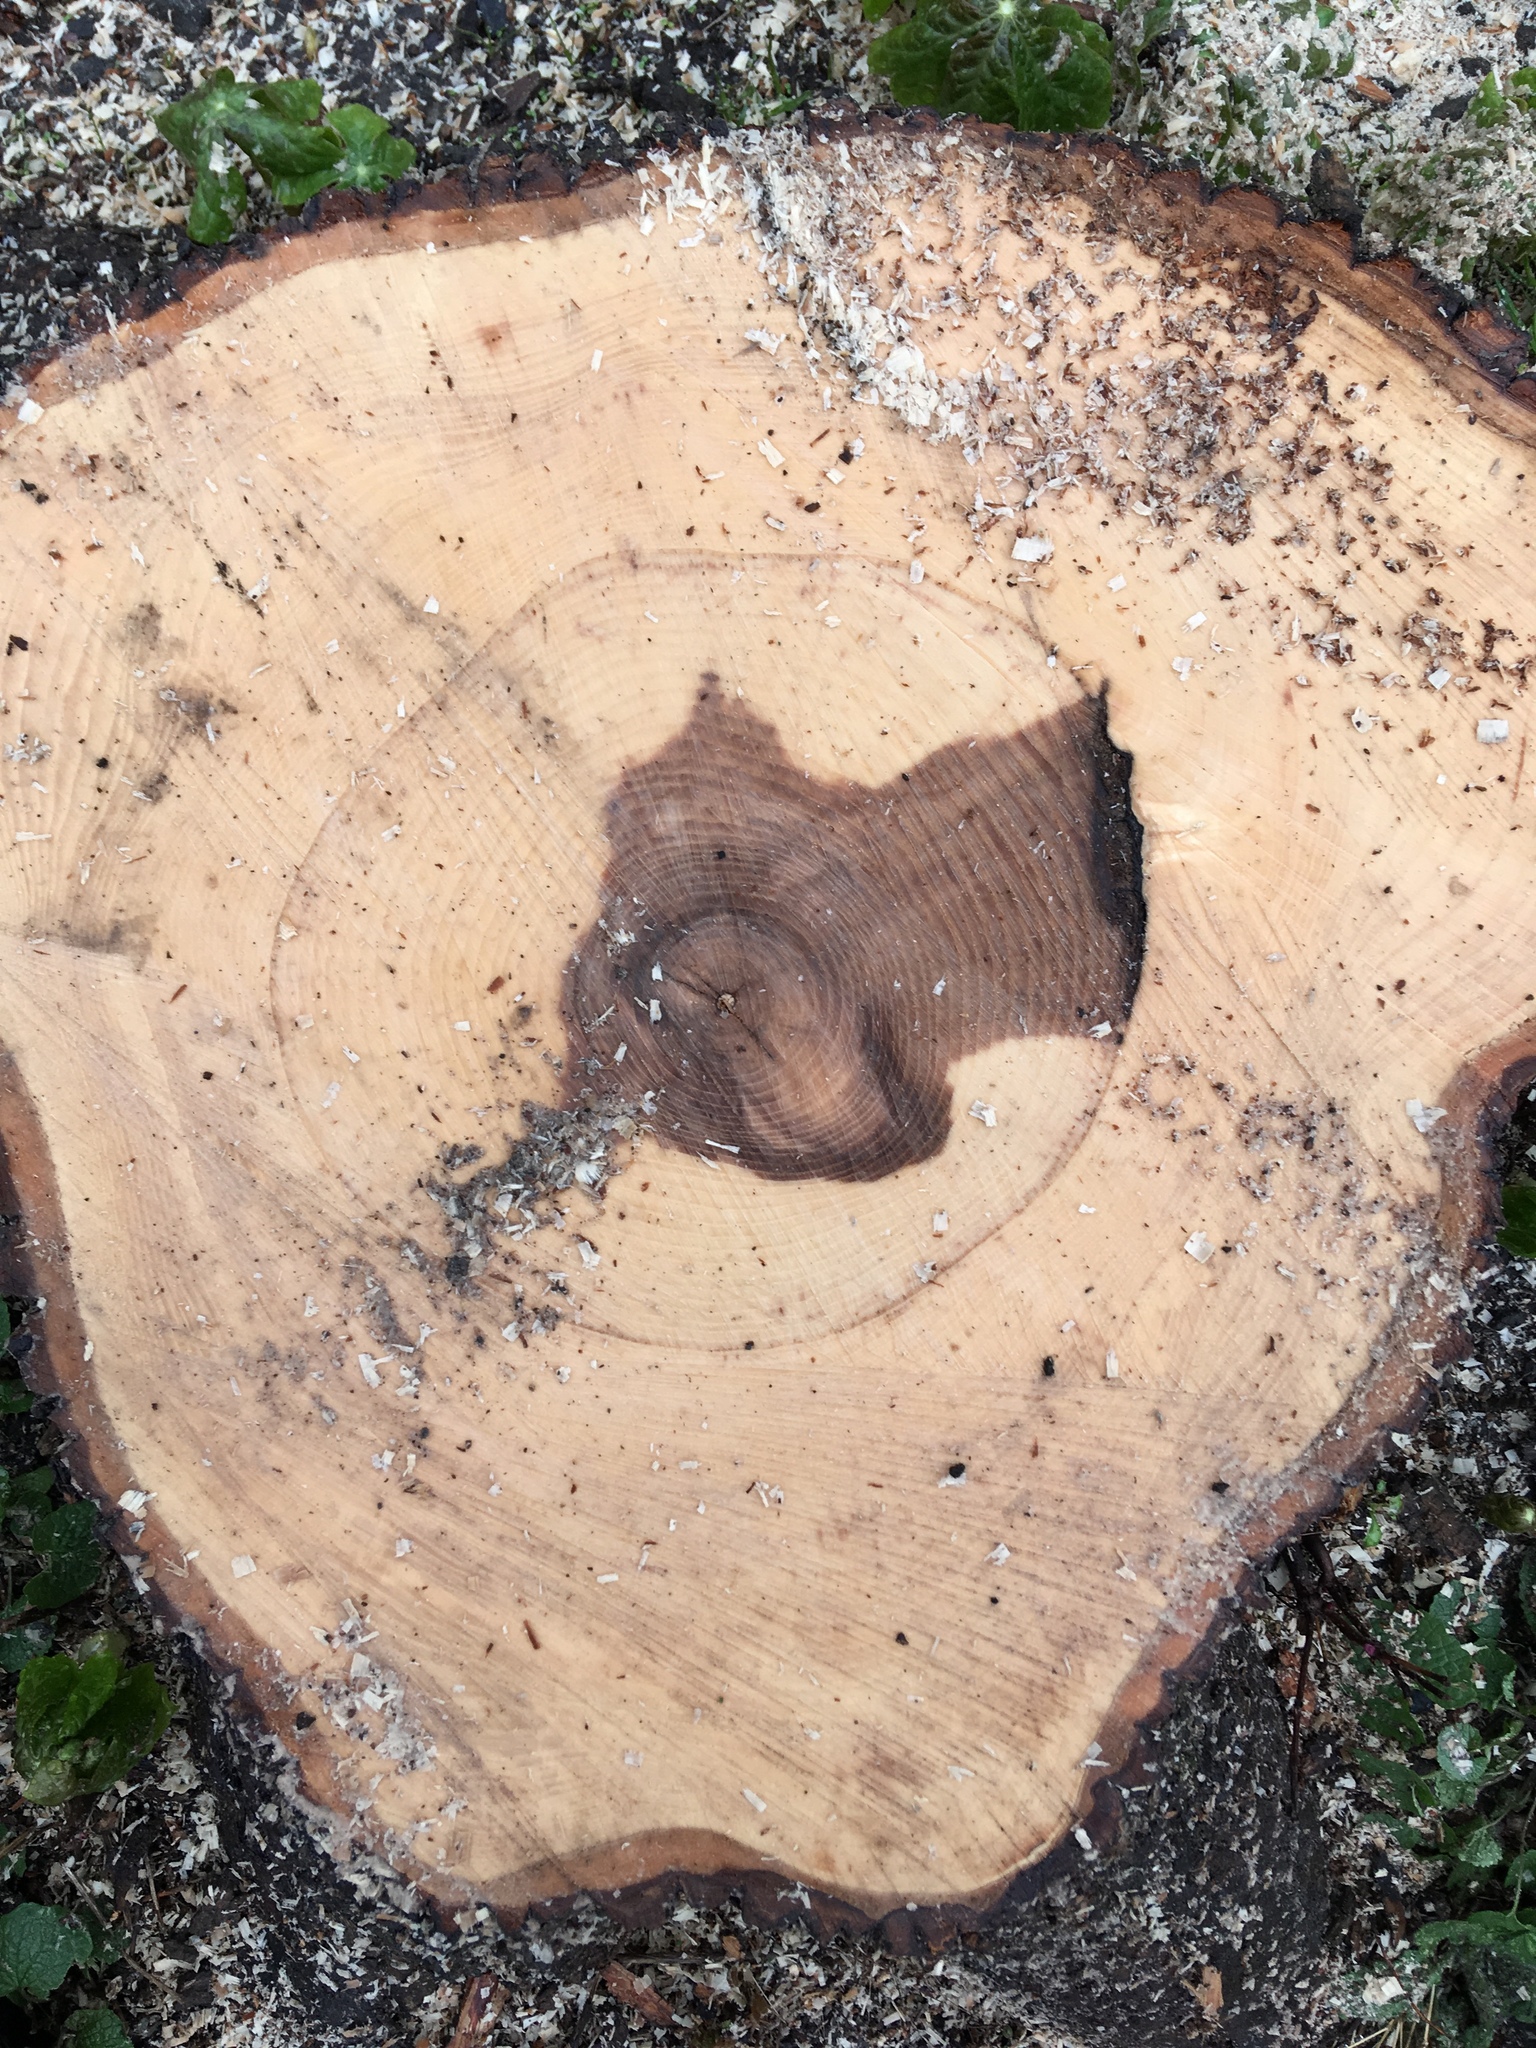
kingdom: Plantae
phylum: Tracheophyta
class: Magnoliopsida
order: Lamiales
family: Oleaceae
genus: Fraxinus
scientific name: Fraxinus pennsylvanica
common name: Green ash
